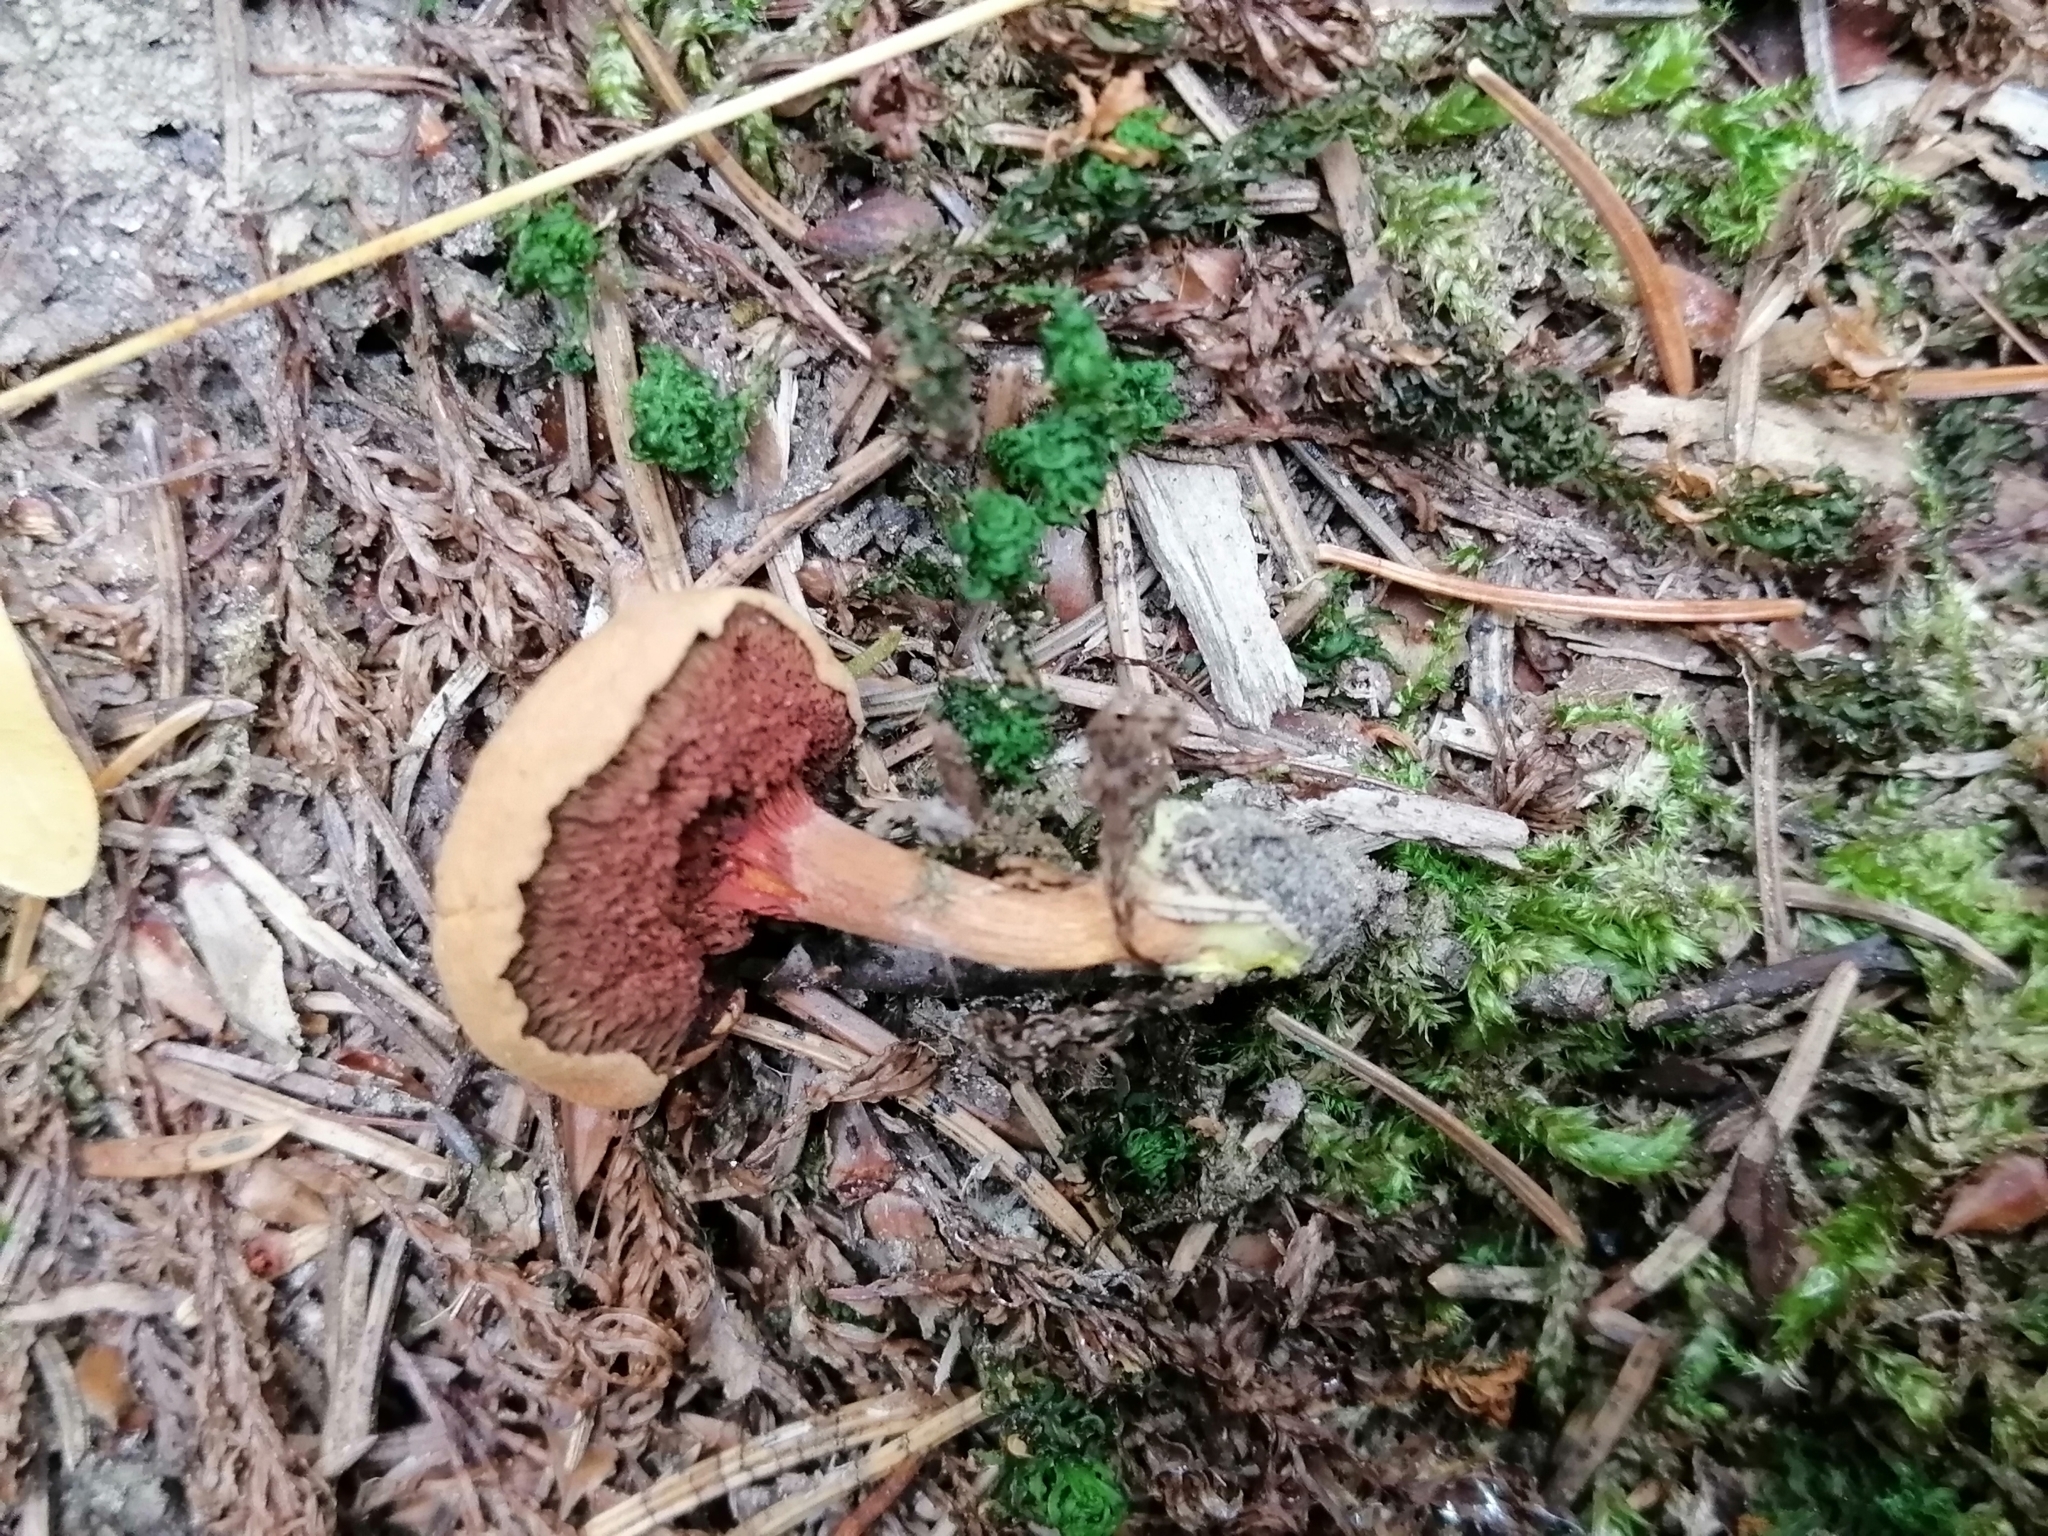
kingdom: Fungi
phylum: Basidiomycota
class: Agaricomycetes
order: Boletales
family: Boletaceae
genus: Chalciporus
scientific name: Chalciporus piperatus
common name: Peppery bolete
